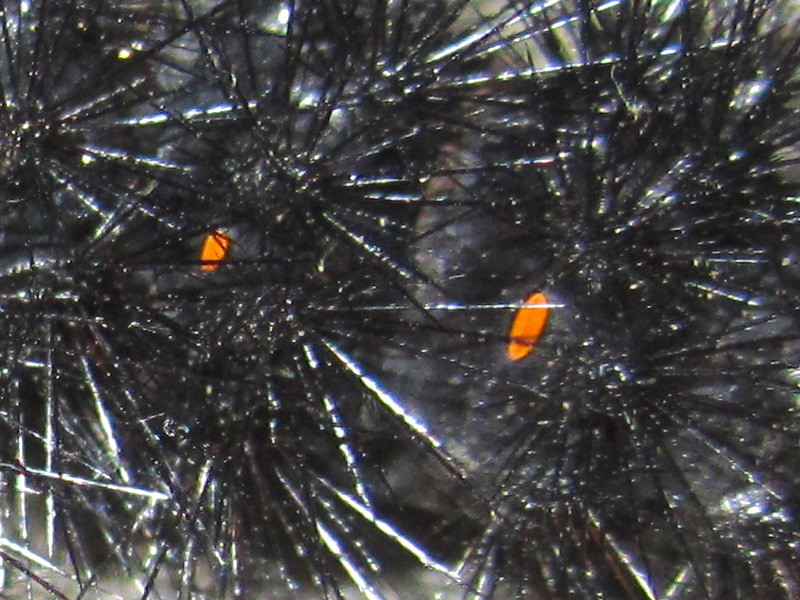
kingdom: Animalia
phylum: Arthropoda
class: Insecta
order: Lepidoptera
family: Erebidae
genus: Hypercompe
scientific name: Hypercompe scribonia
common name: Giant leopard moth
